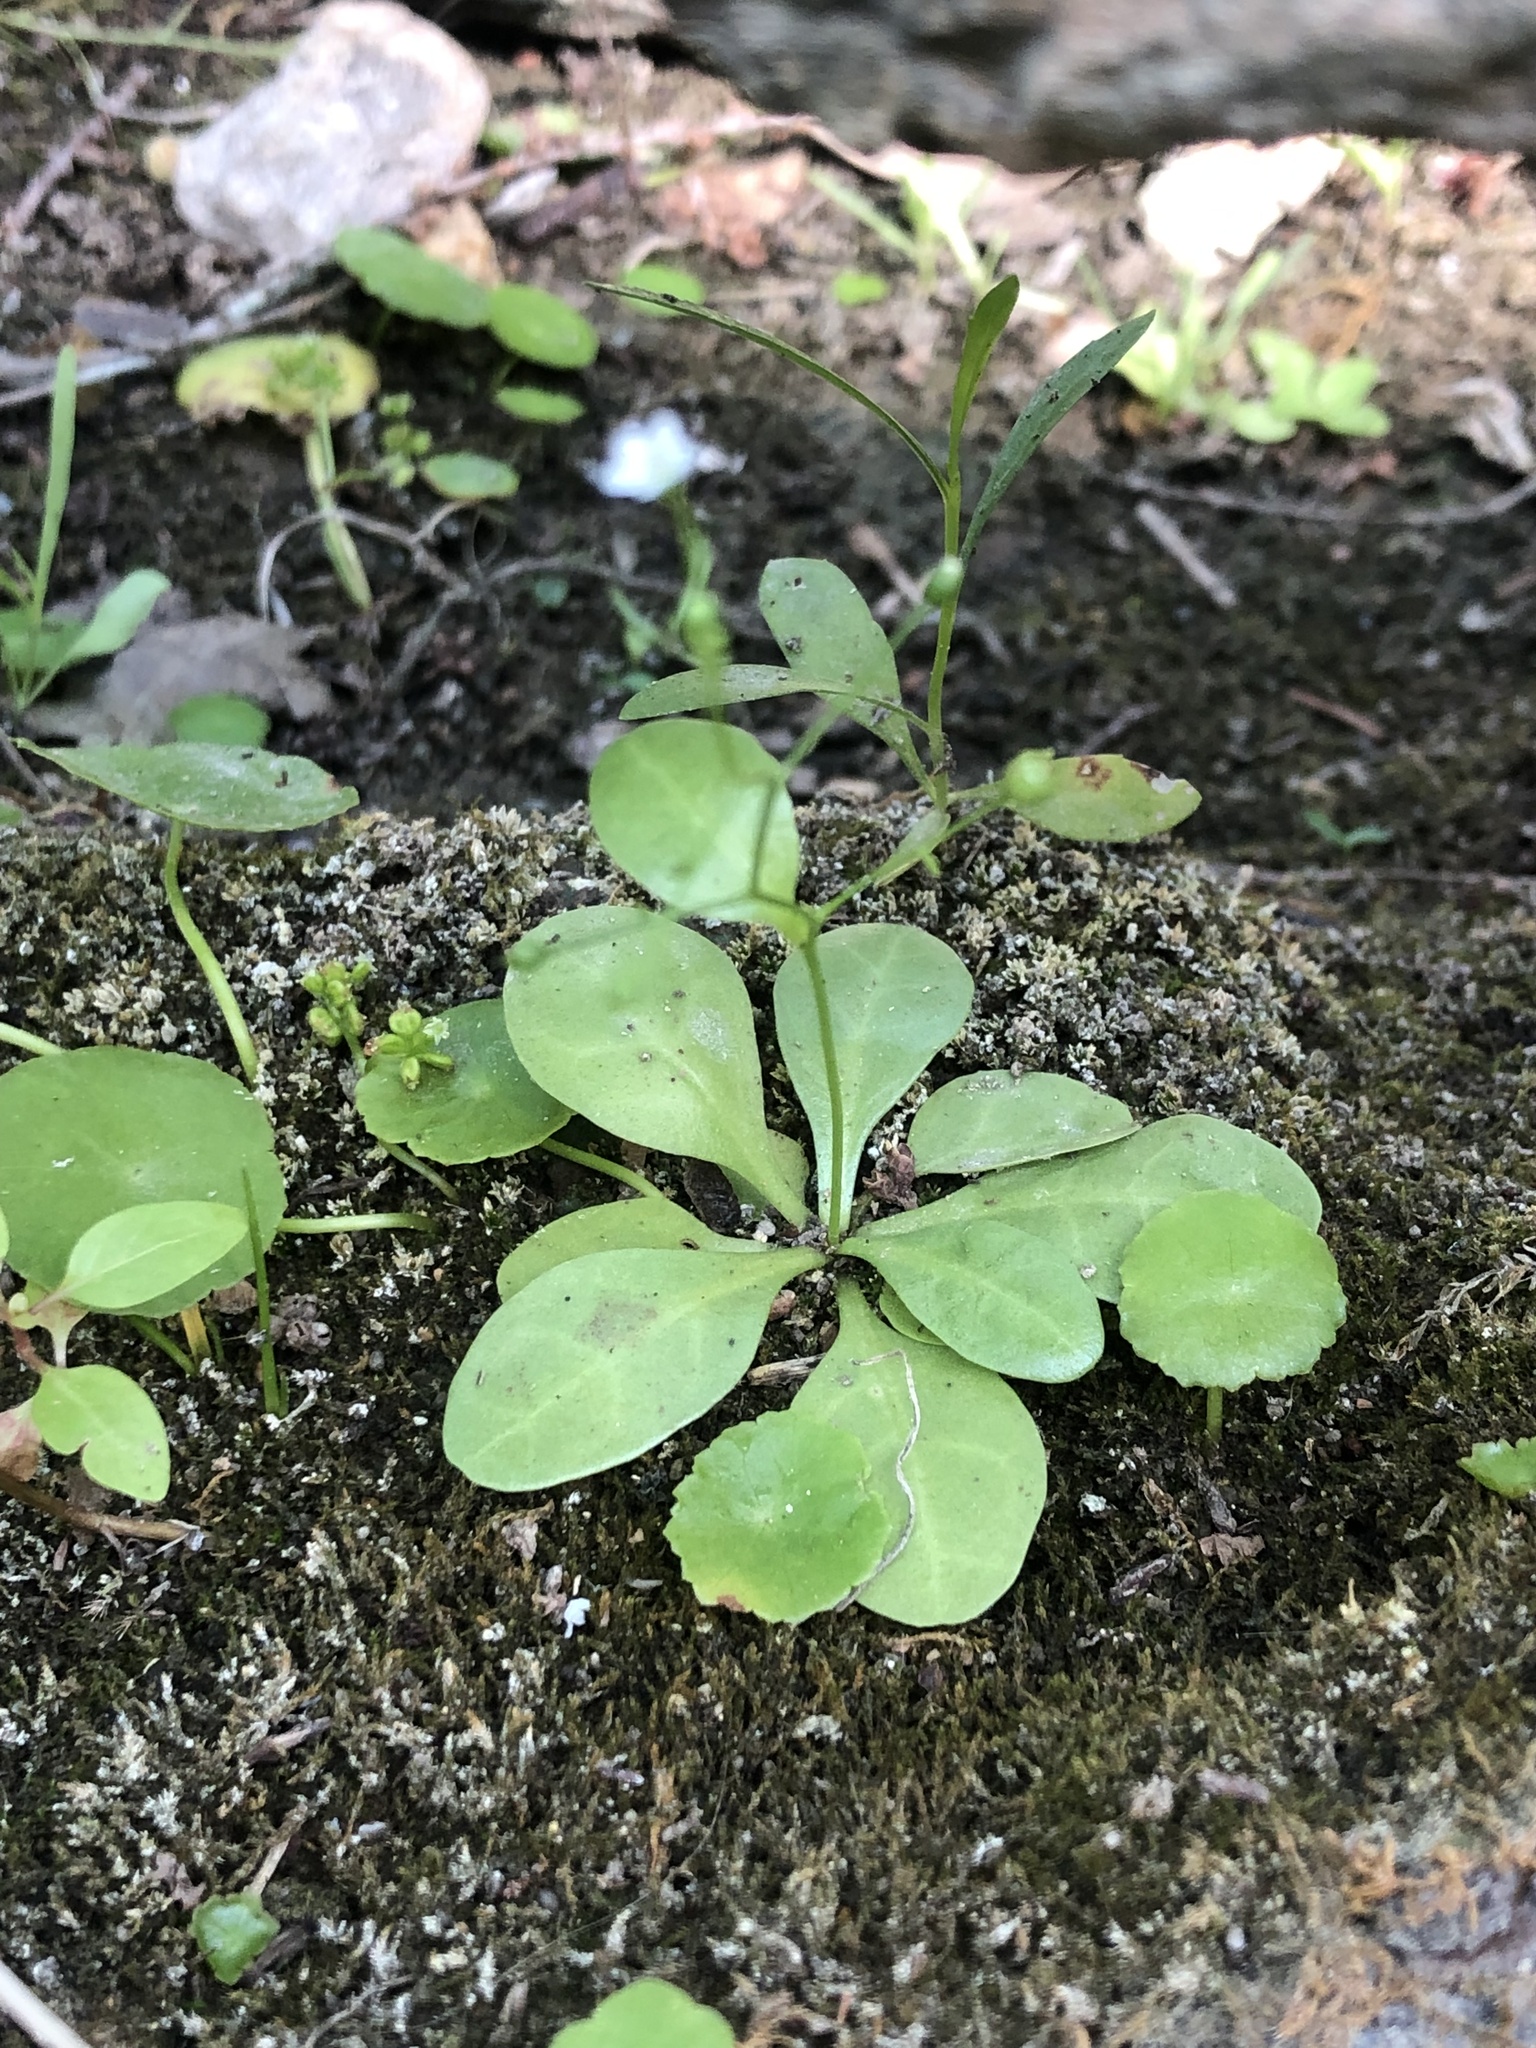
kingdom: Plantae
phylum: Tracheophyta
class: Magnoliopsida
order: Ericales
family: Primulaceae
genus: Samolus
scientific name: Samolus parviflorus
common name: False water pimpernel
